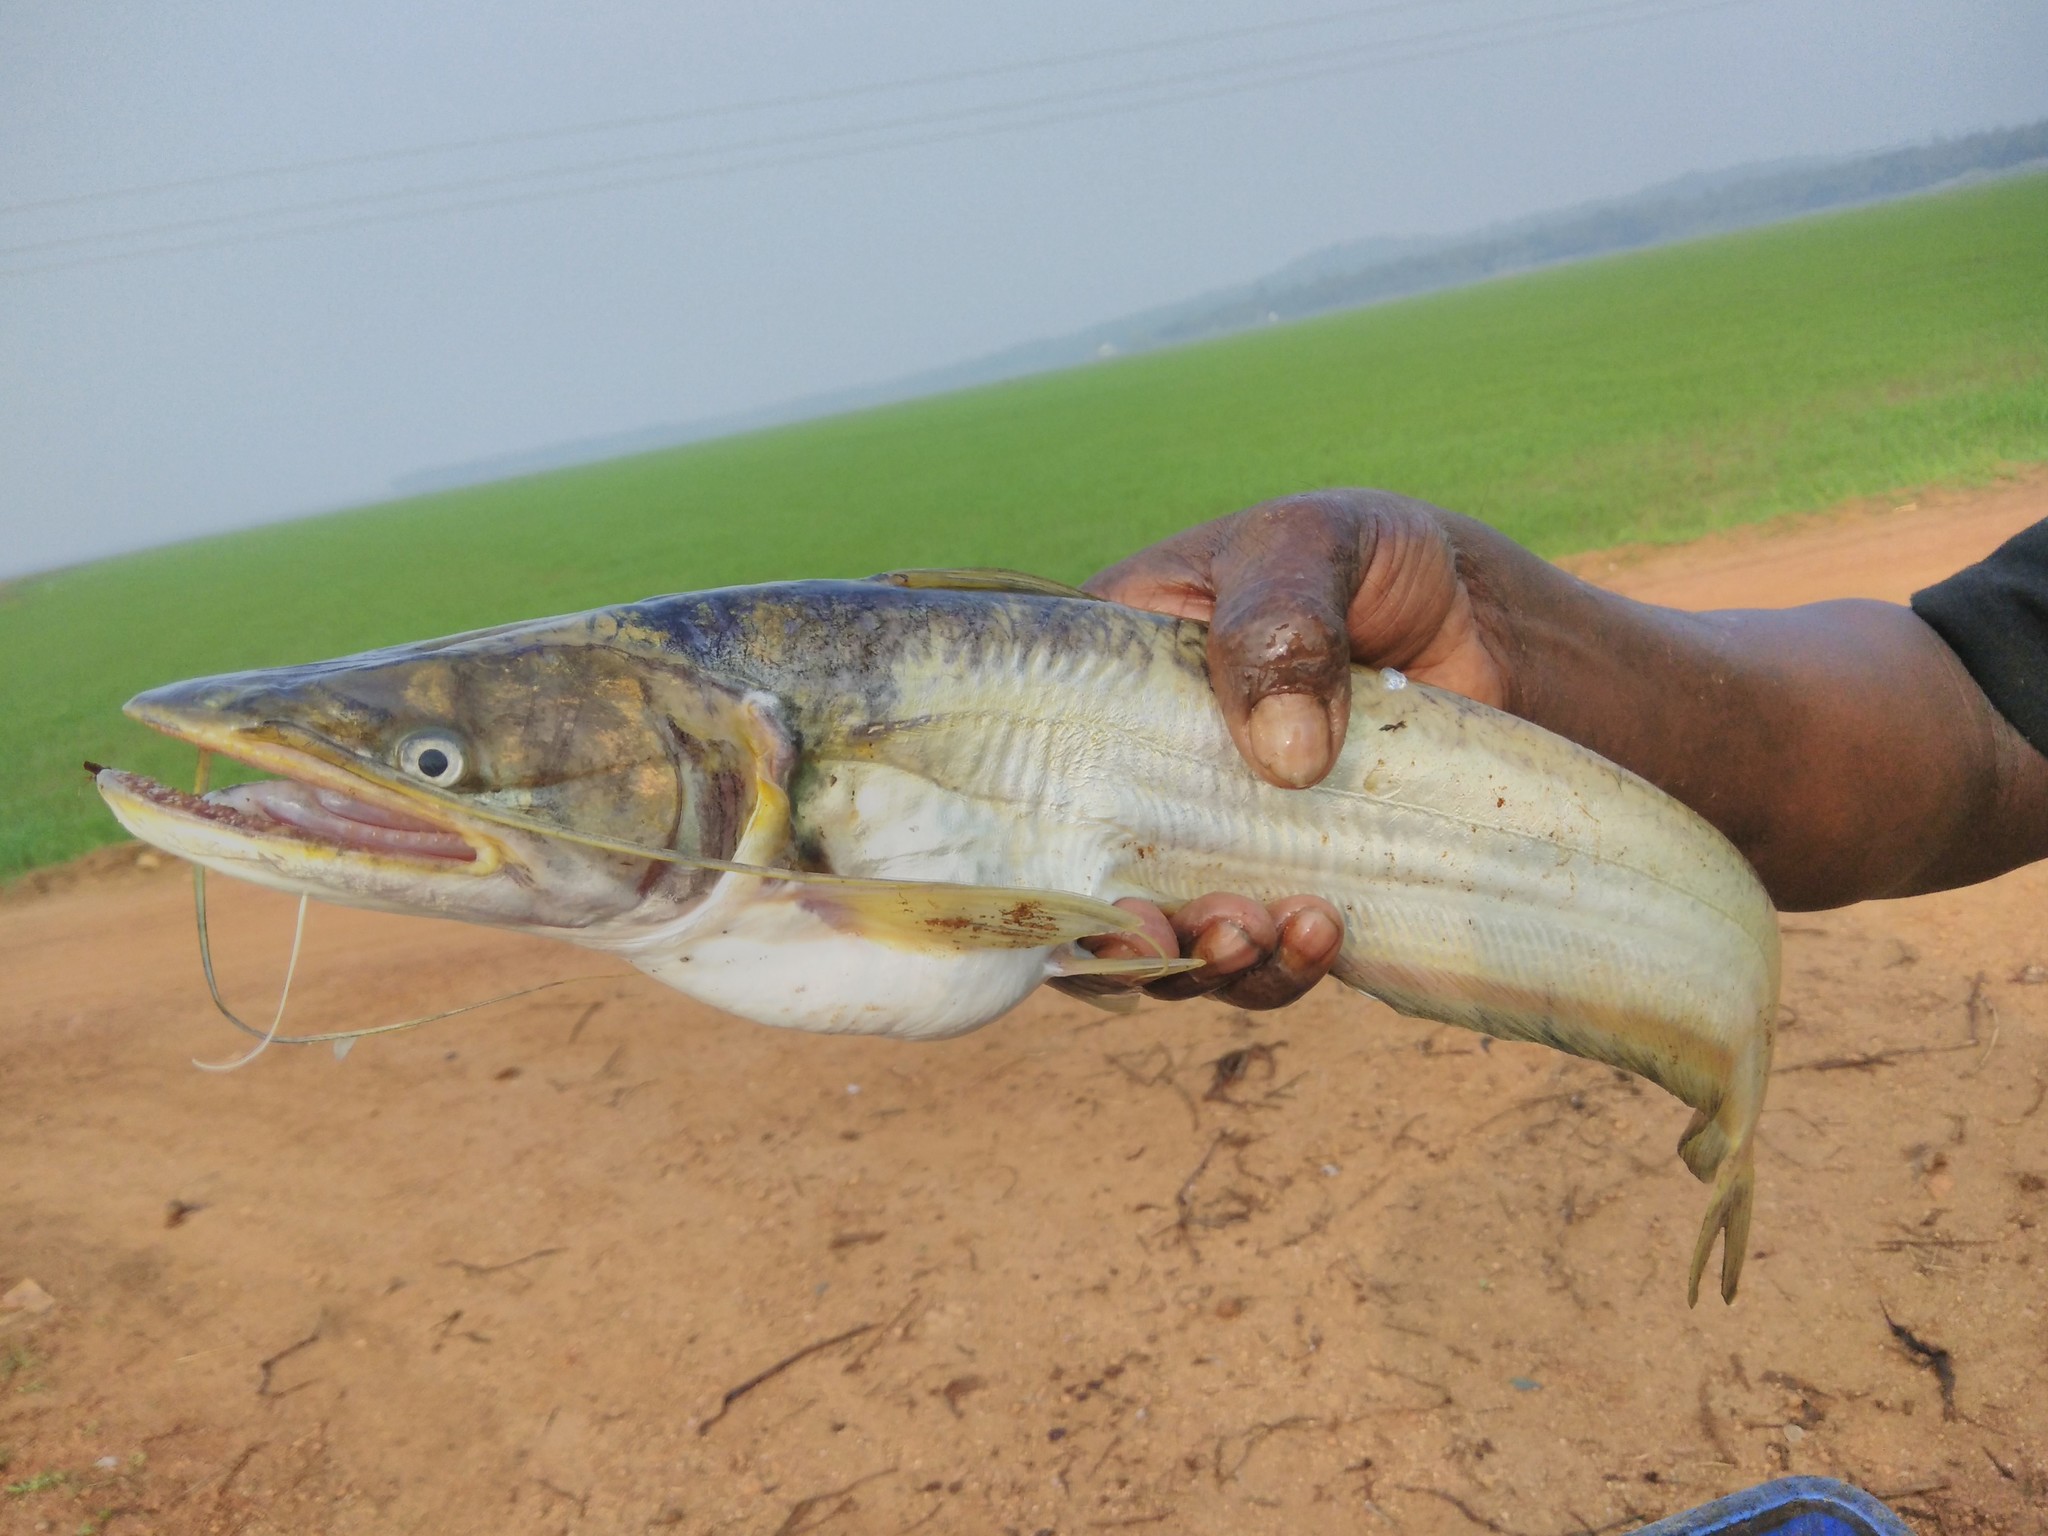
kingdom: Animalia
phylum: Chordata
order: Siluriformes
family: Siluridae
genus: Wallago
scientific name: Wallago attu
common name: Freshwater shark
